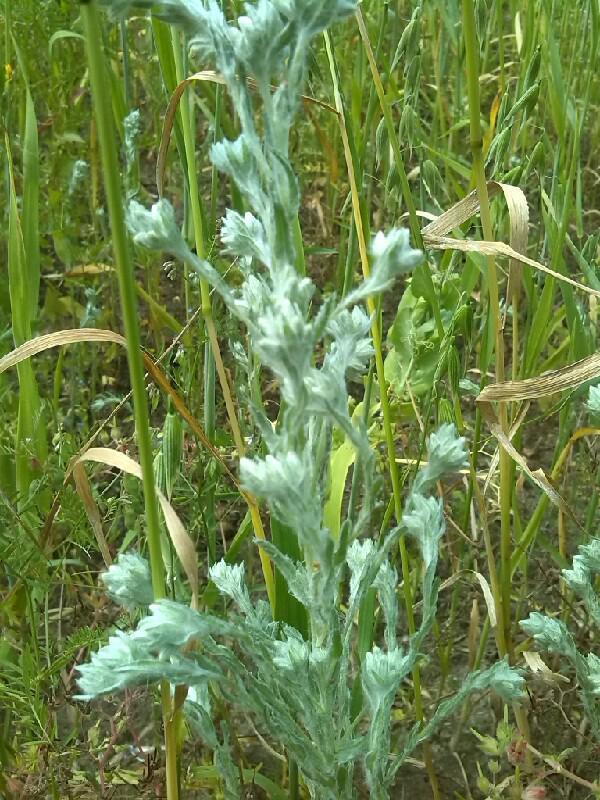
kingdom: Plantae
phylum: Tracheophyta
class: Magnoliopsida
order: Asterales
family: Asteraceae
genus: Filago
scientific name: Filago arvensis
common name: Field cudweed
